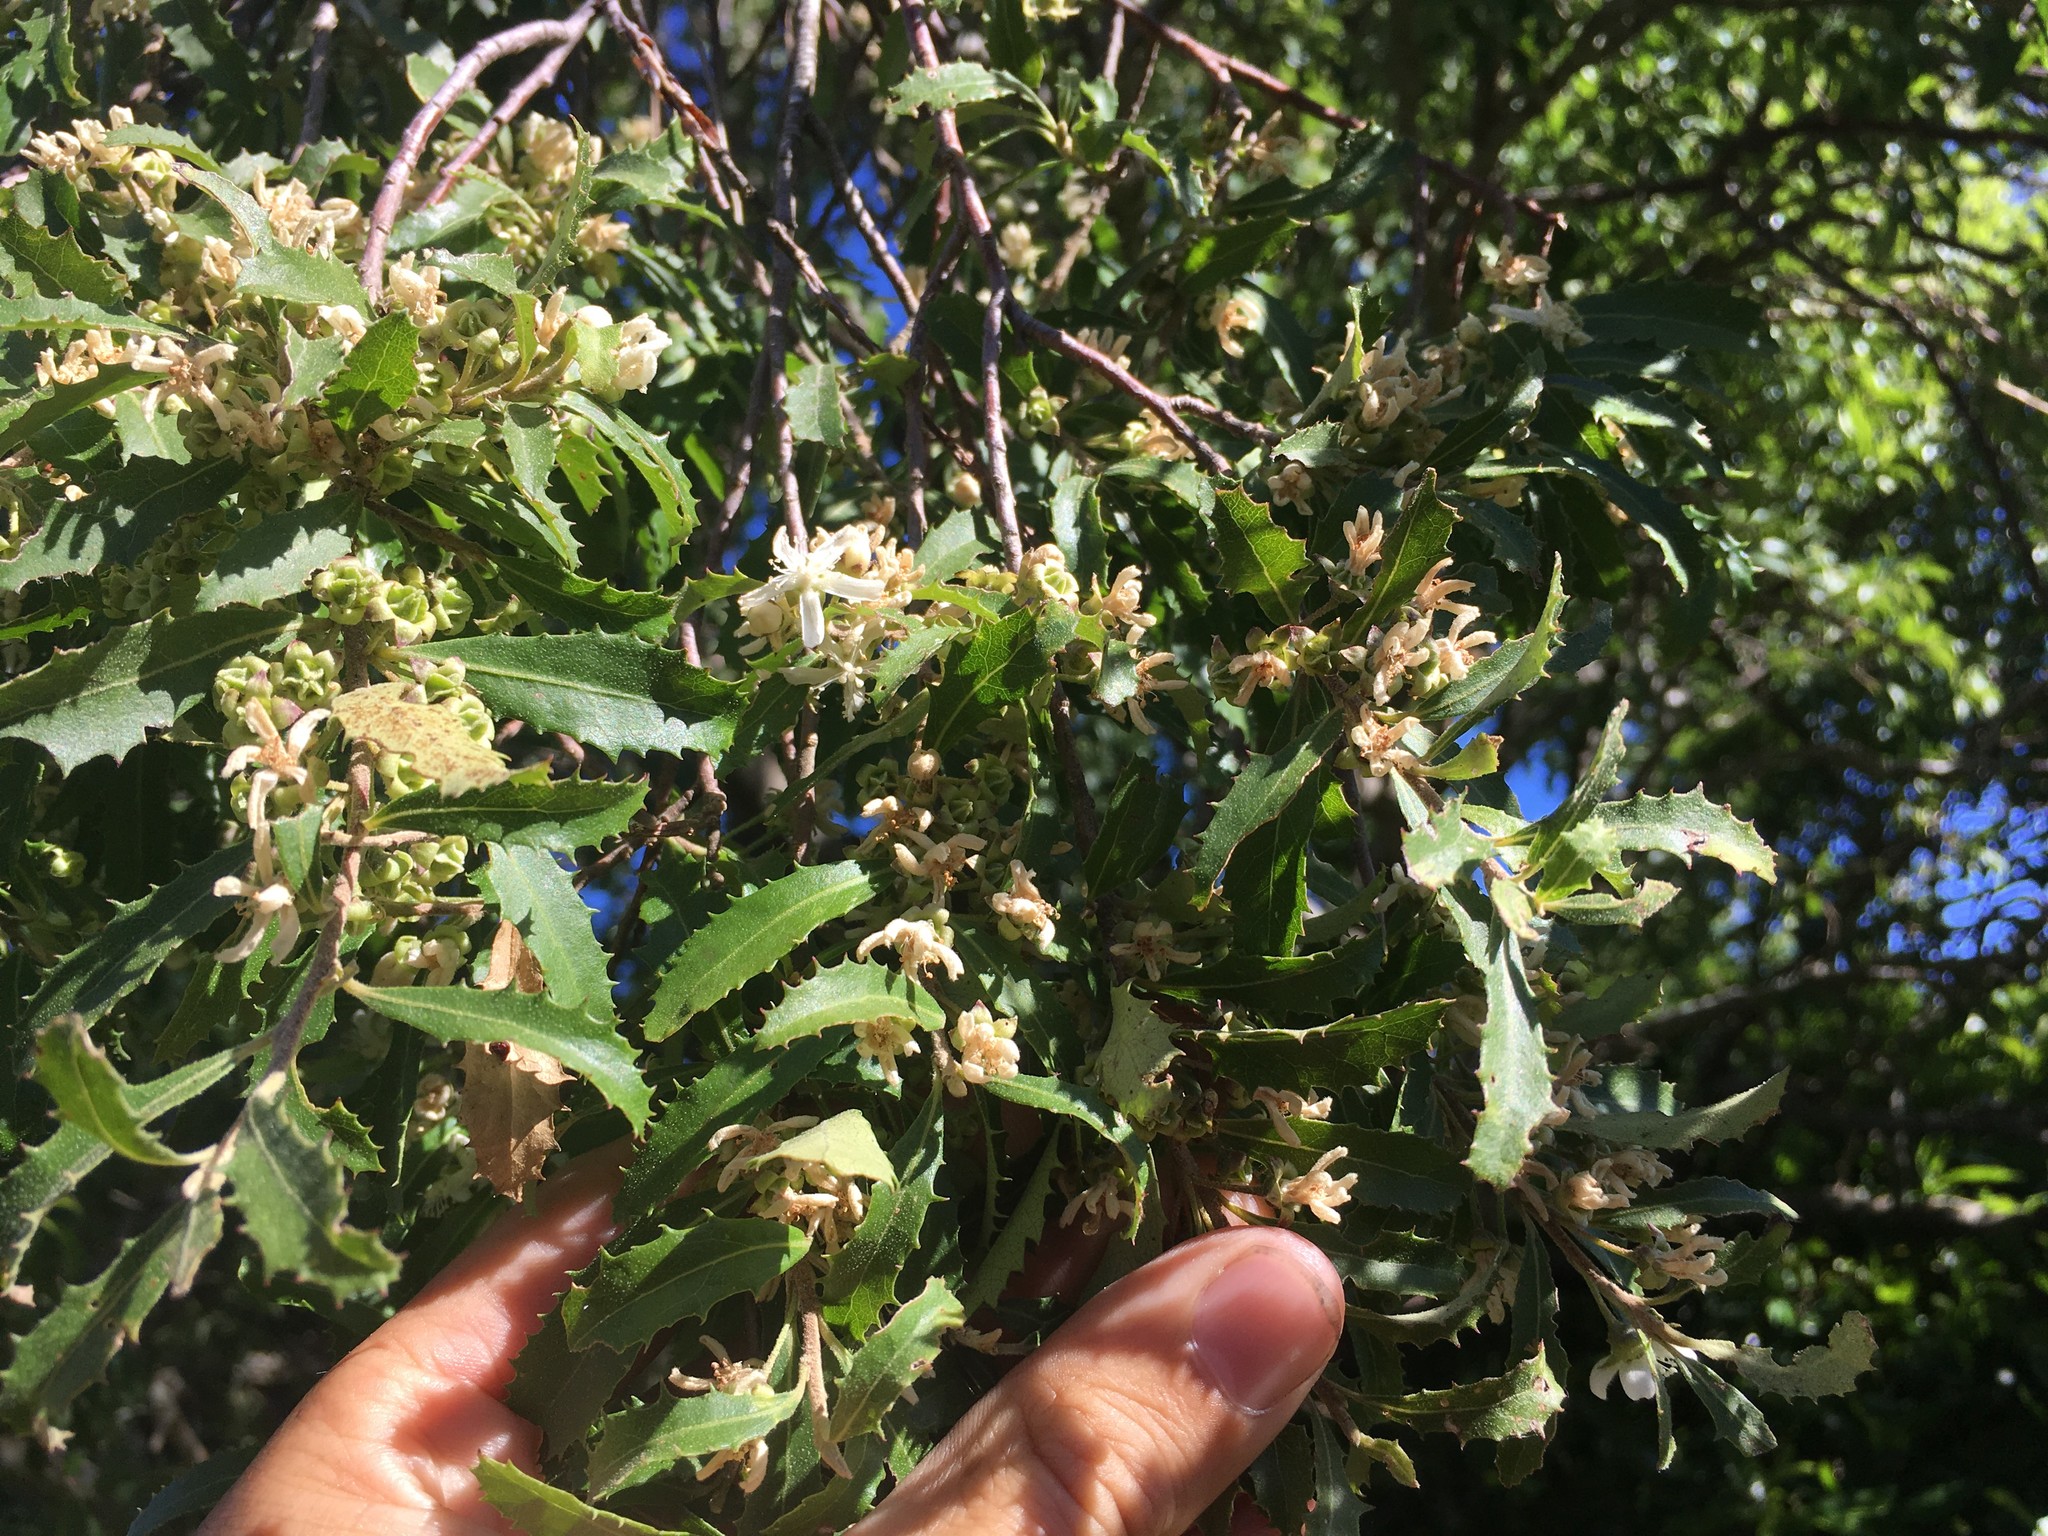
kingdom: Plantae
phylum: Tracheophyta
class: Magnoliopsida
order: Malvales
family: Malvaceae
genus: Hoheria
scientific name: Hoheria angustifolia
